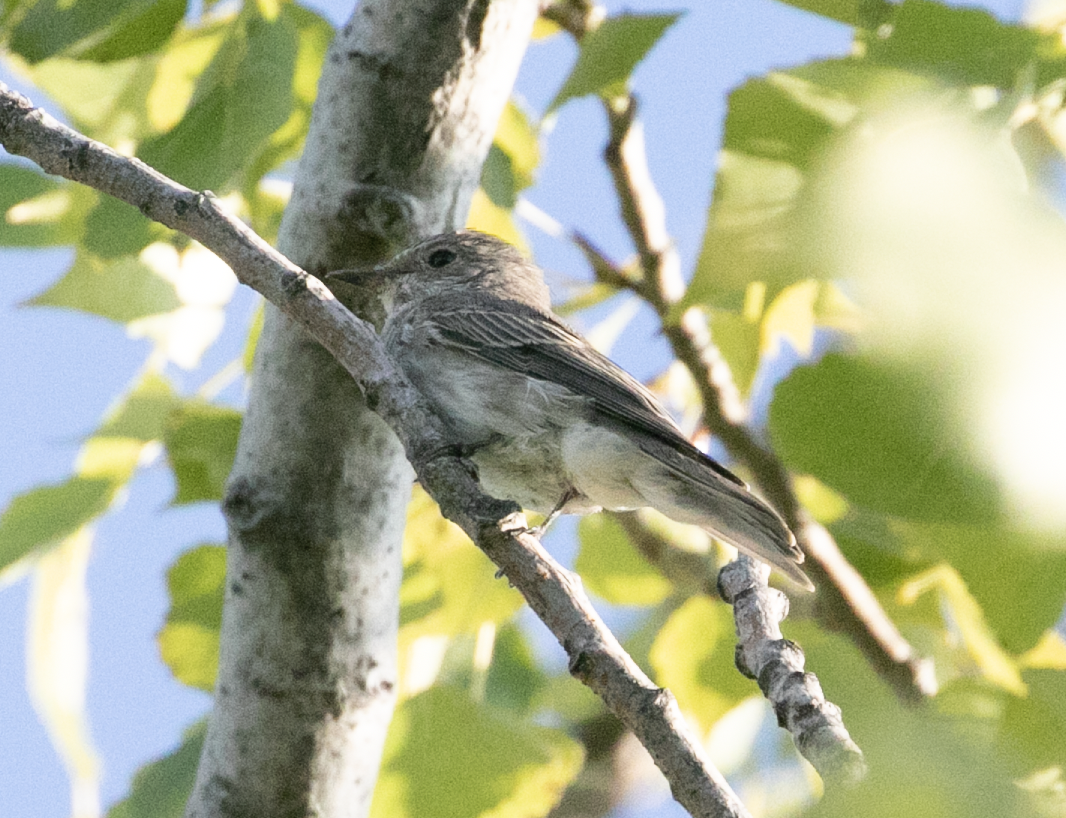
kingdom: Animalia
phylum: Chordata
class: Aves
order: Passeriformes
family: Muscicapidae
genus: Muscicapa
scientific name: Muscicapa striata
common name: Spotted flycatcher
